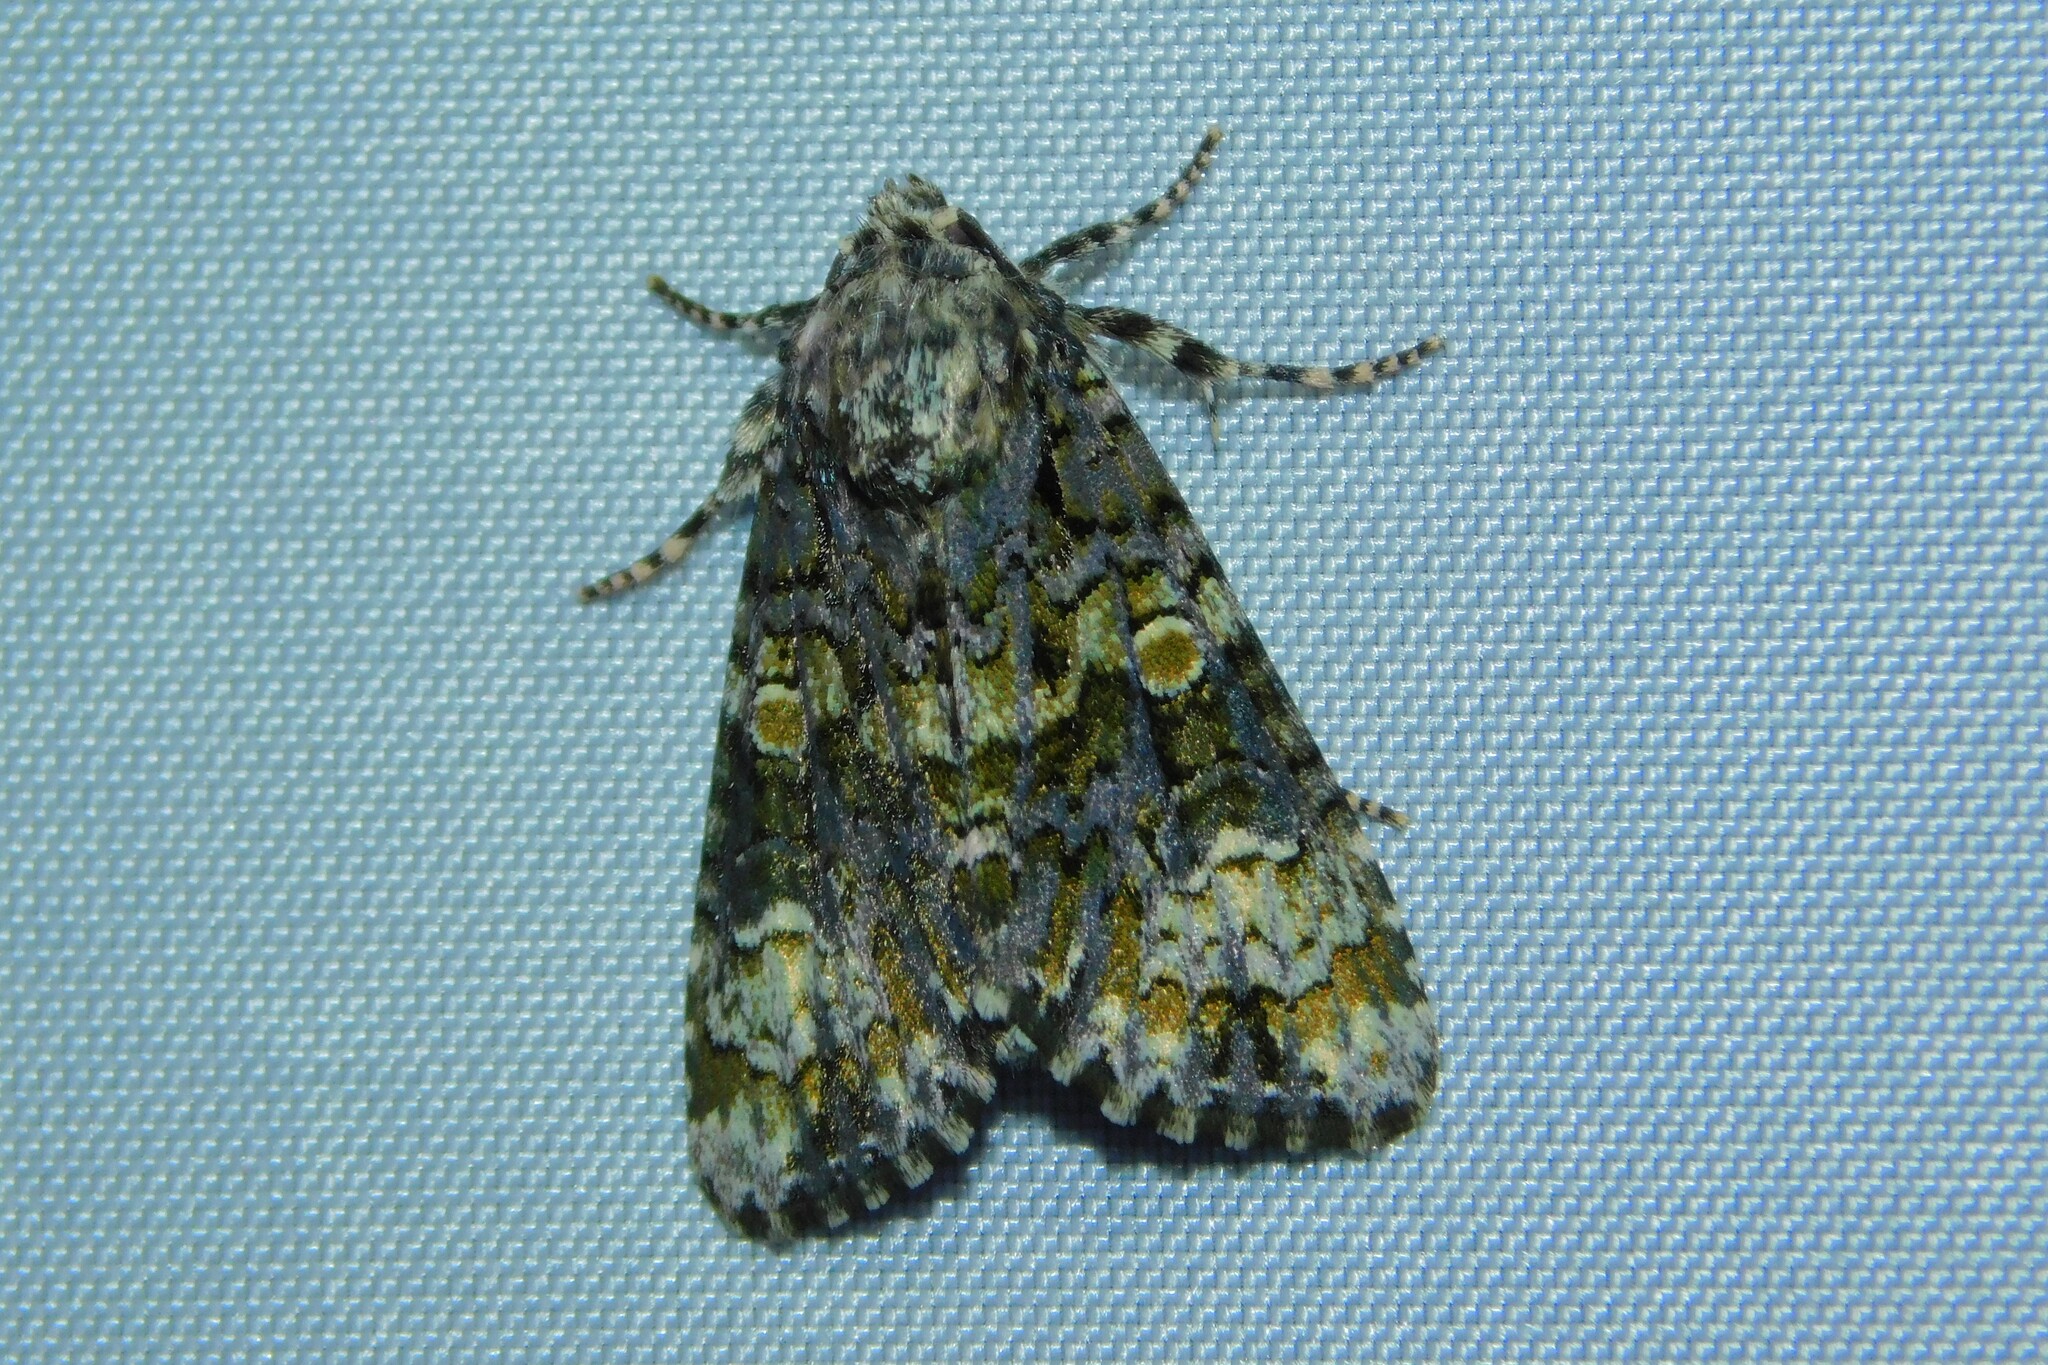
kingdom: Animalia
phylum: Arthropoda
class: Insecta
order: Lepidoptera
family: Noctuidae
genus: Craniophora
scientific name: Craniophora ligustri
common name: Coronet
